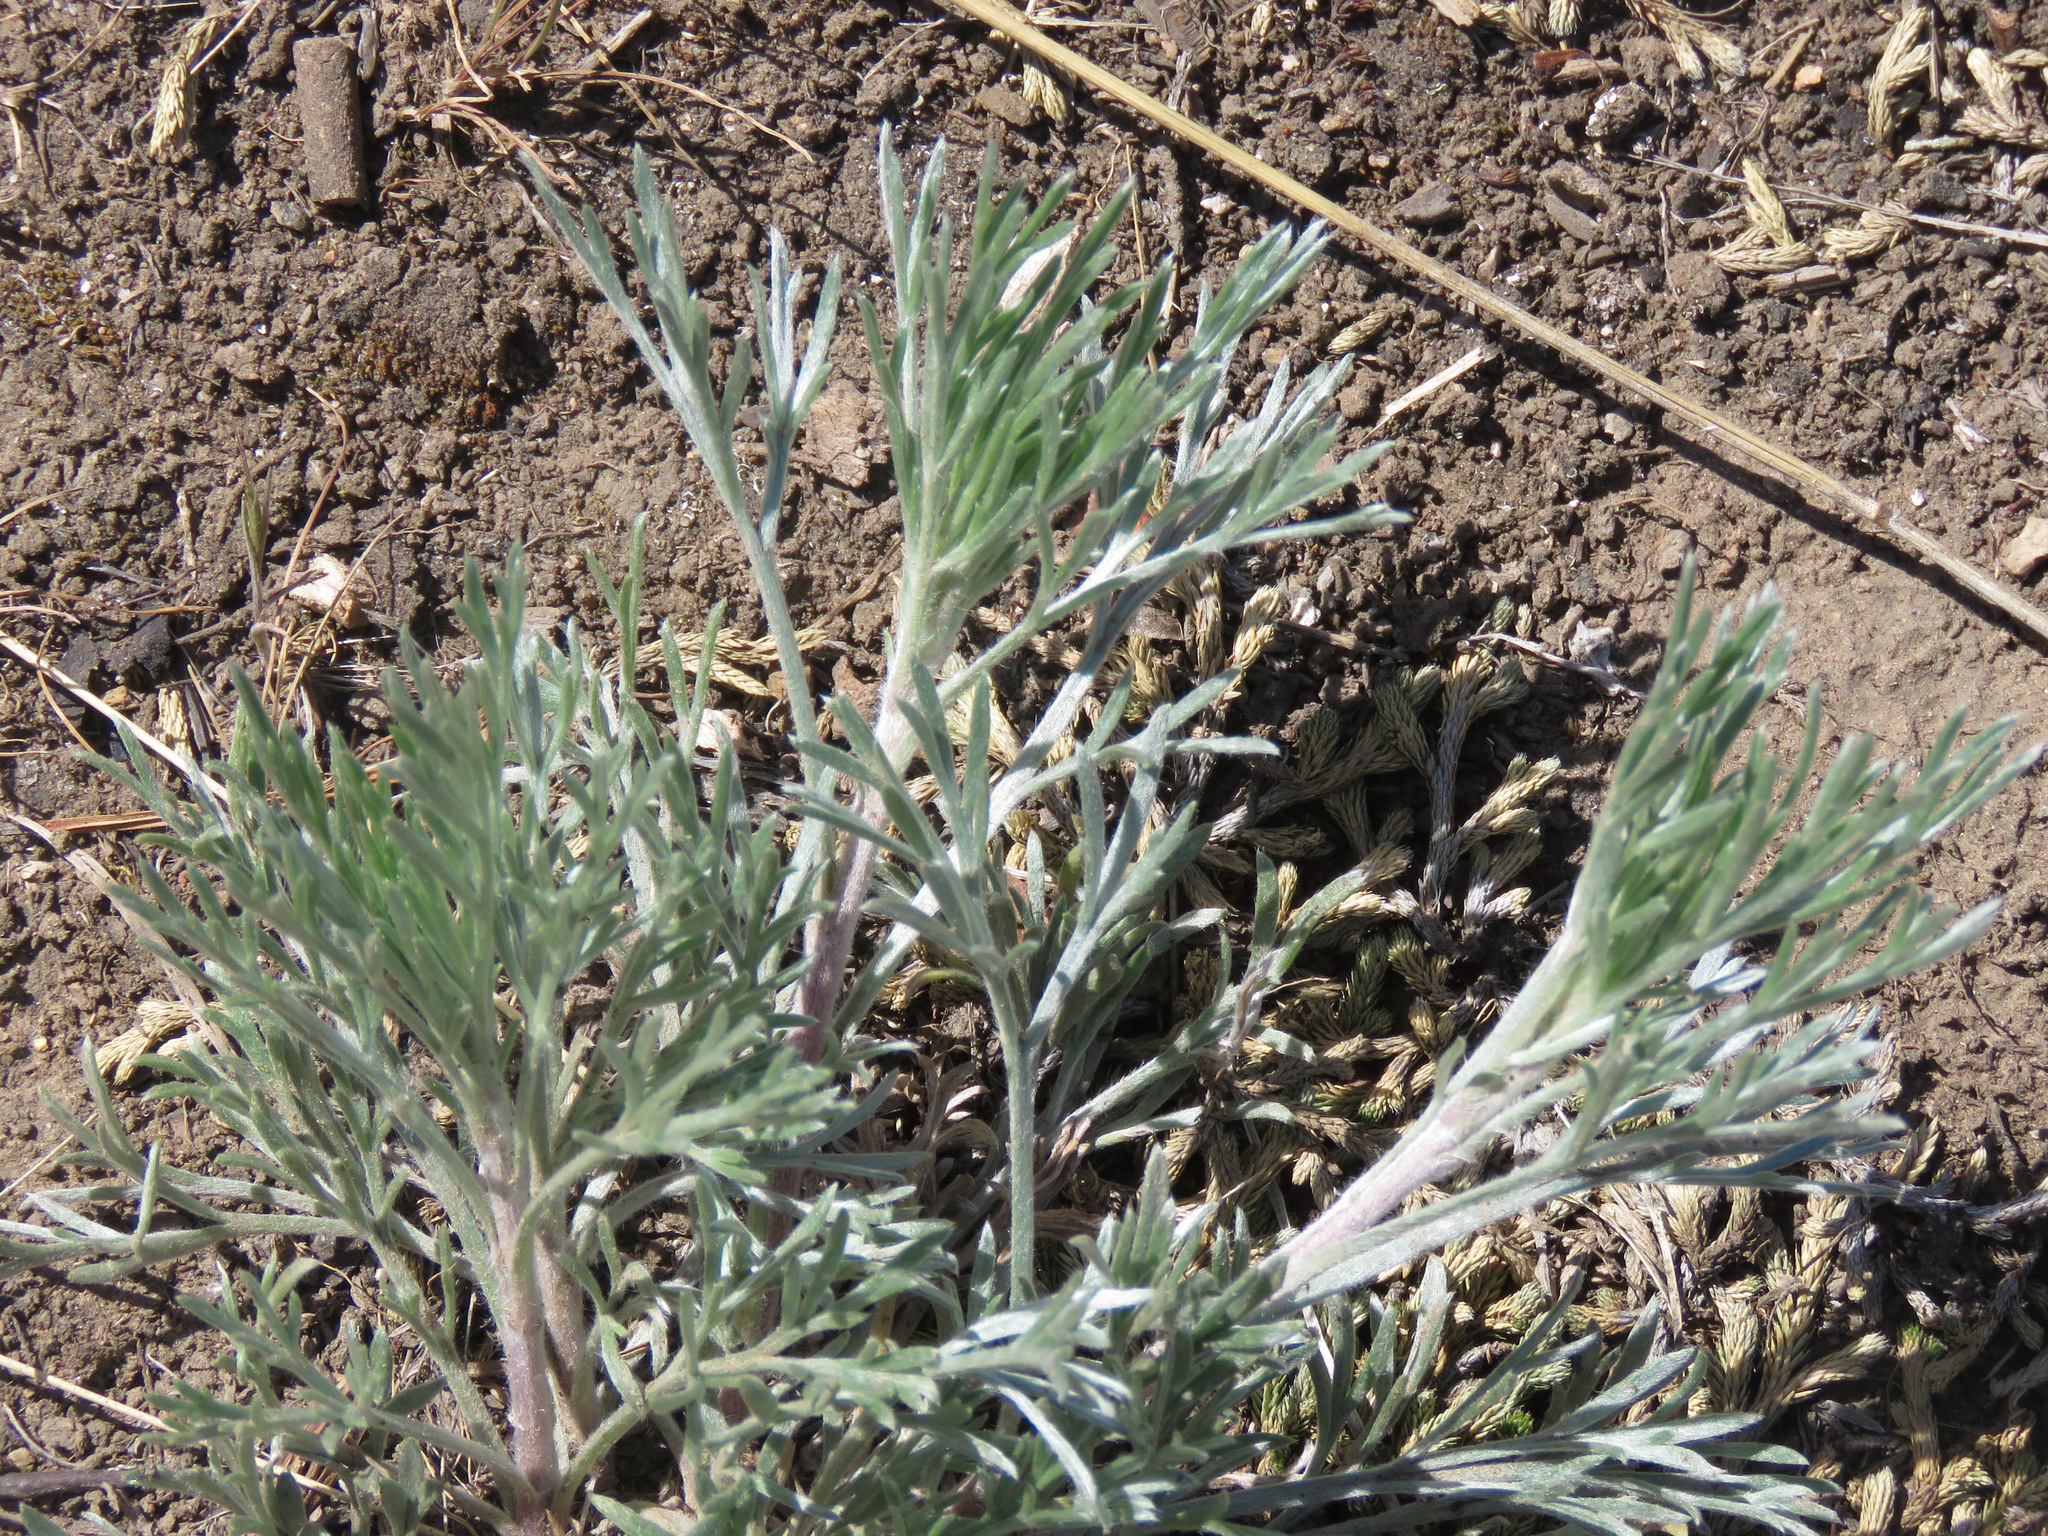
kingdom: Plantae
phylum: Tracheophyta
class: Magnoliopsida
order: Asterales
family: Asteraceae
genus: Artemisia
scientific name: Artemisia campestris
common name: Field wormwood
